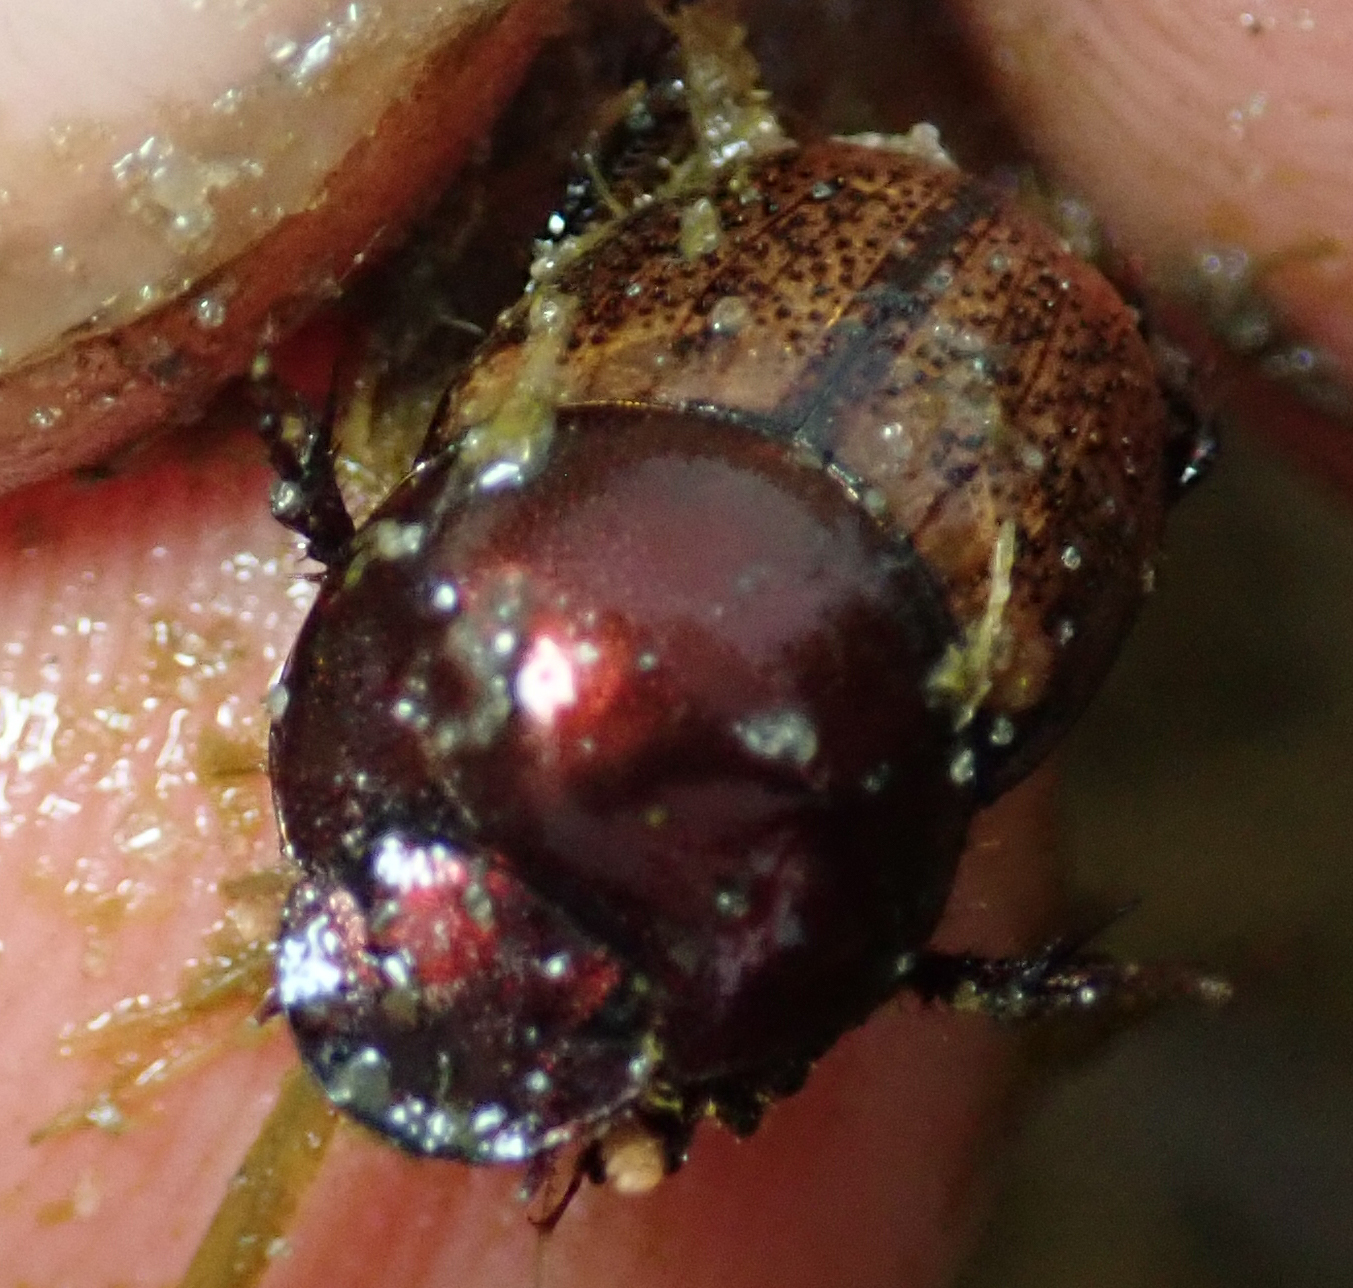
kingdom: Animalia
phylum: Arthropoda
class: Insecta
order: Coleoptera
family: Scarabaeidae
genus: Onthophagus
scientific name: Onthophagus plebejus
